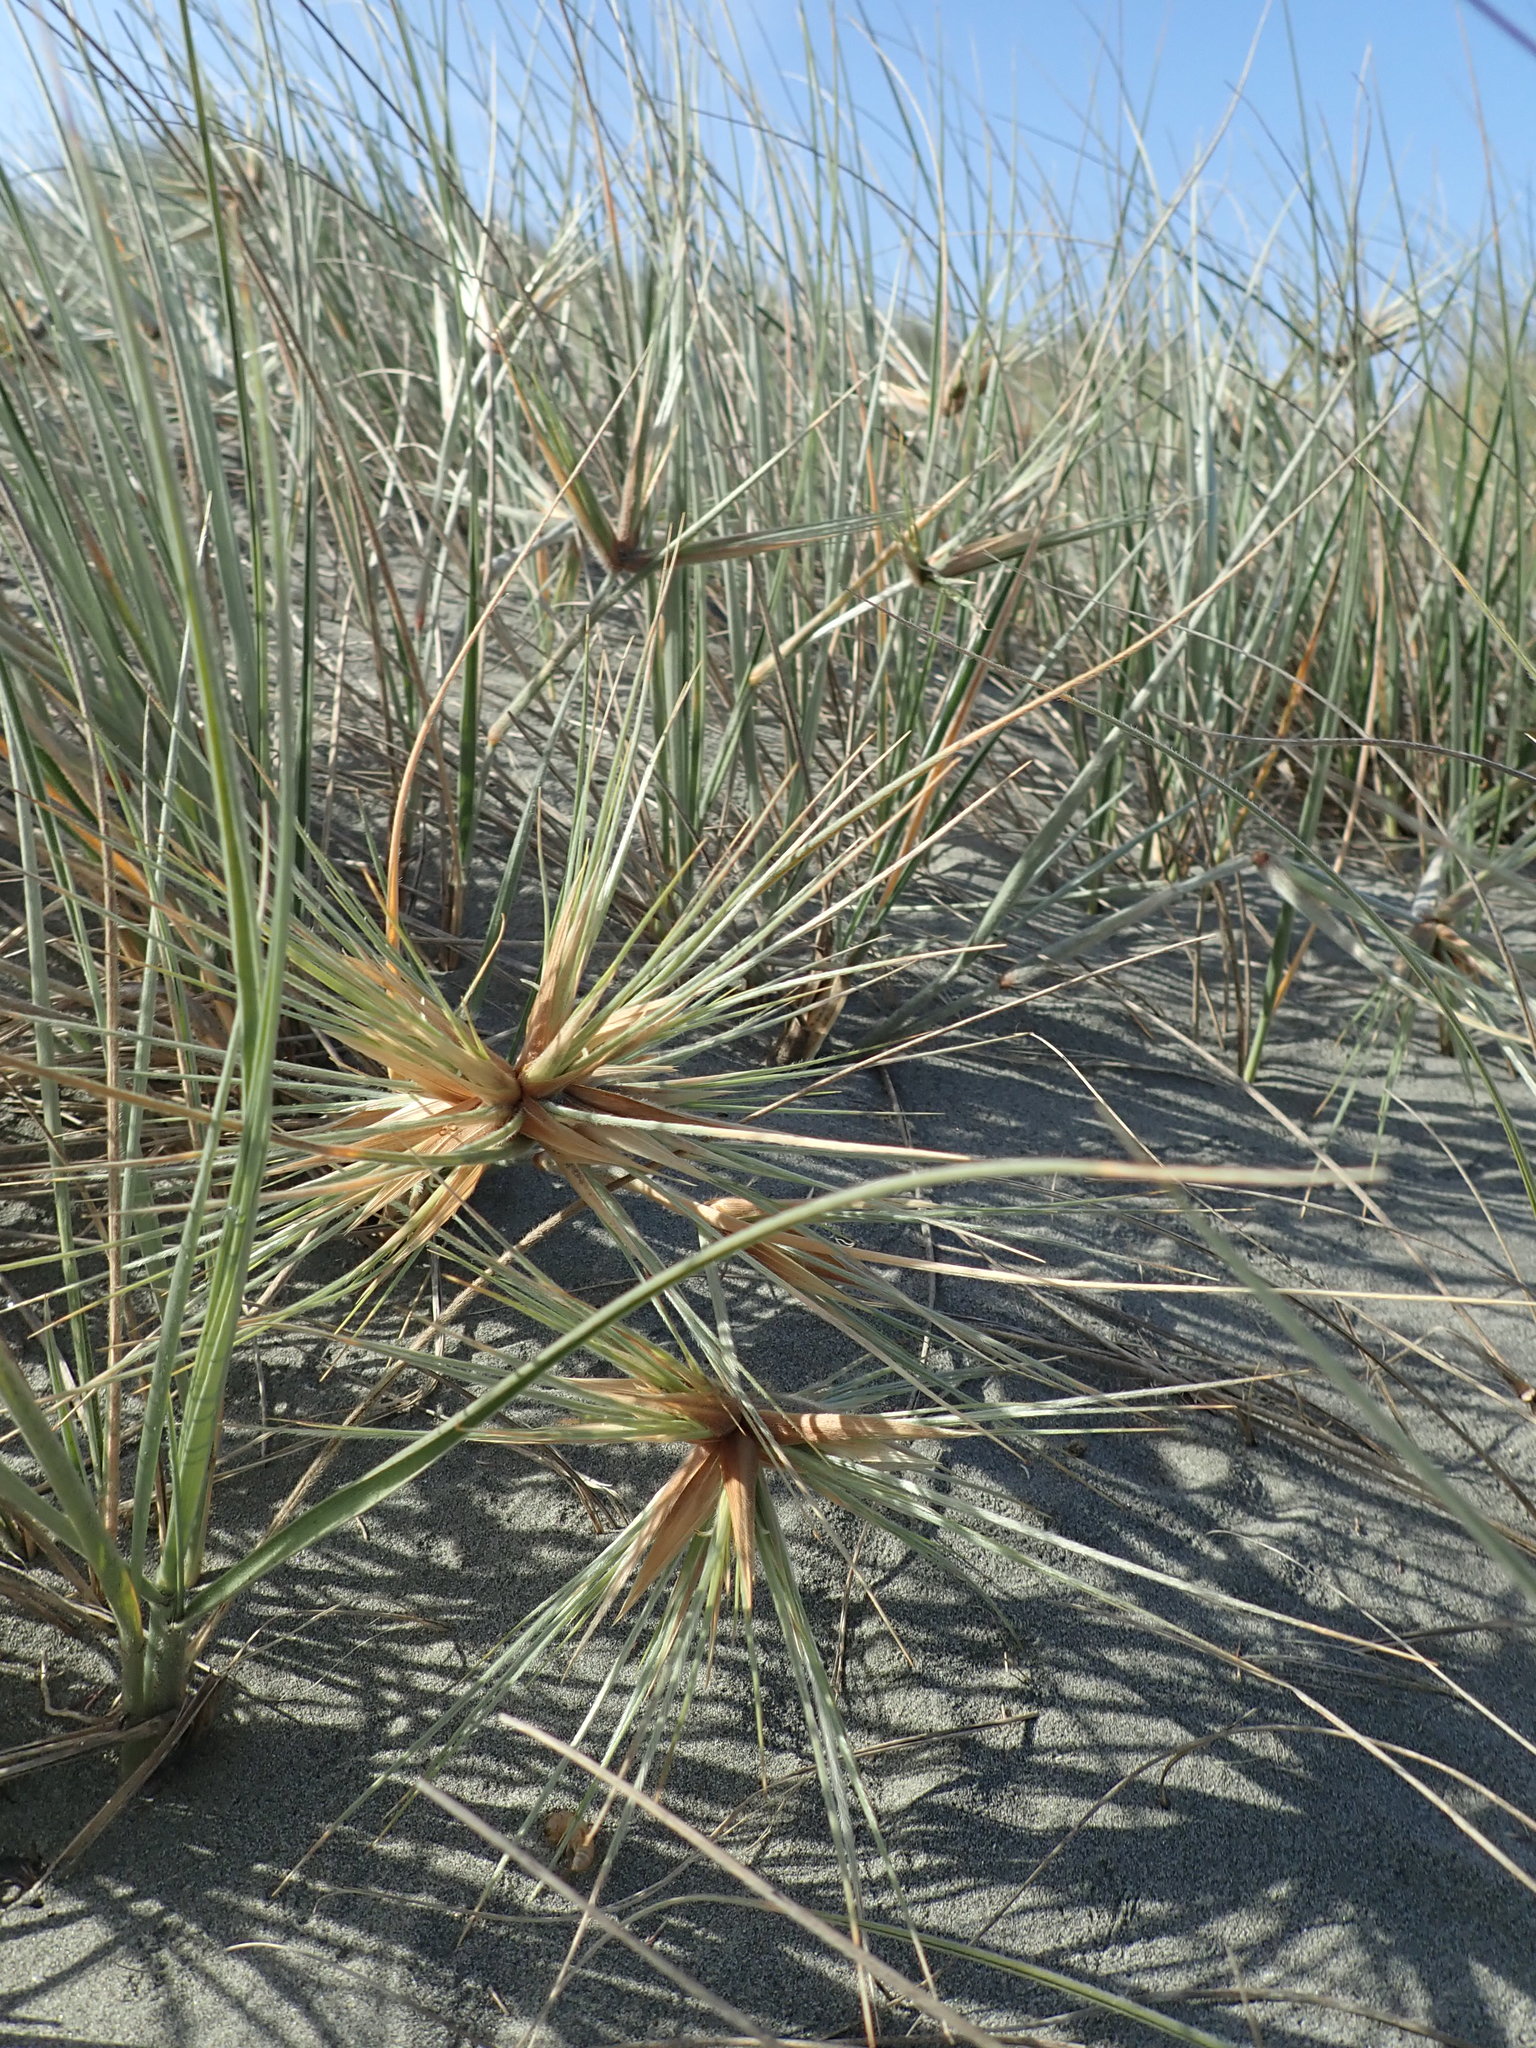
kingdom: Plantae
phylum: Tracheophyta
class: Liliopsida
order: Poales
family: Poaceae
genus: Spinifex
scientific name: Spinifex sericeus
